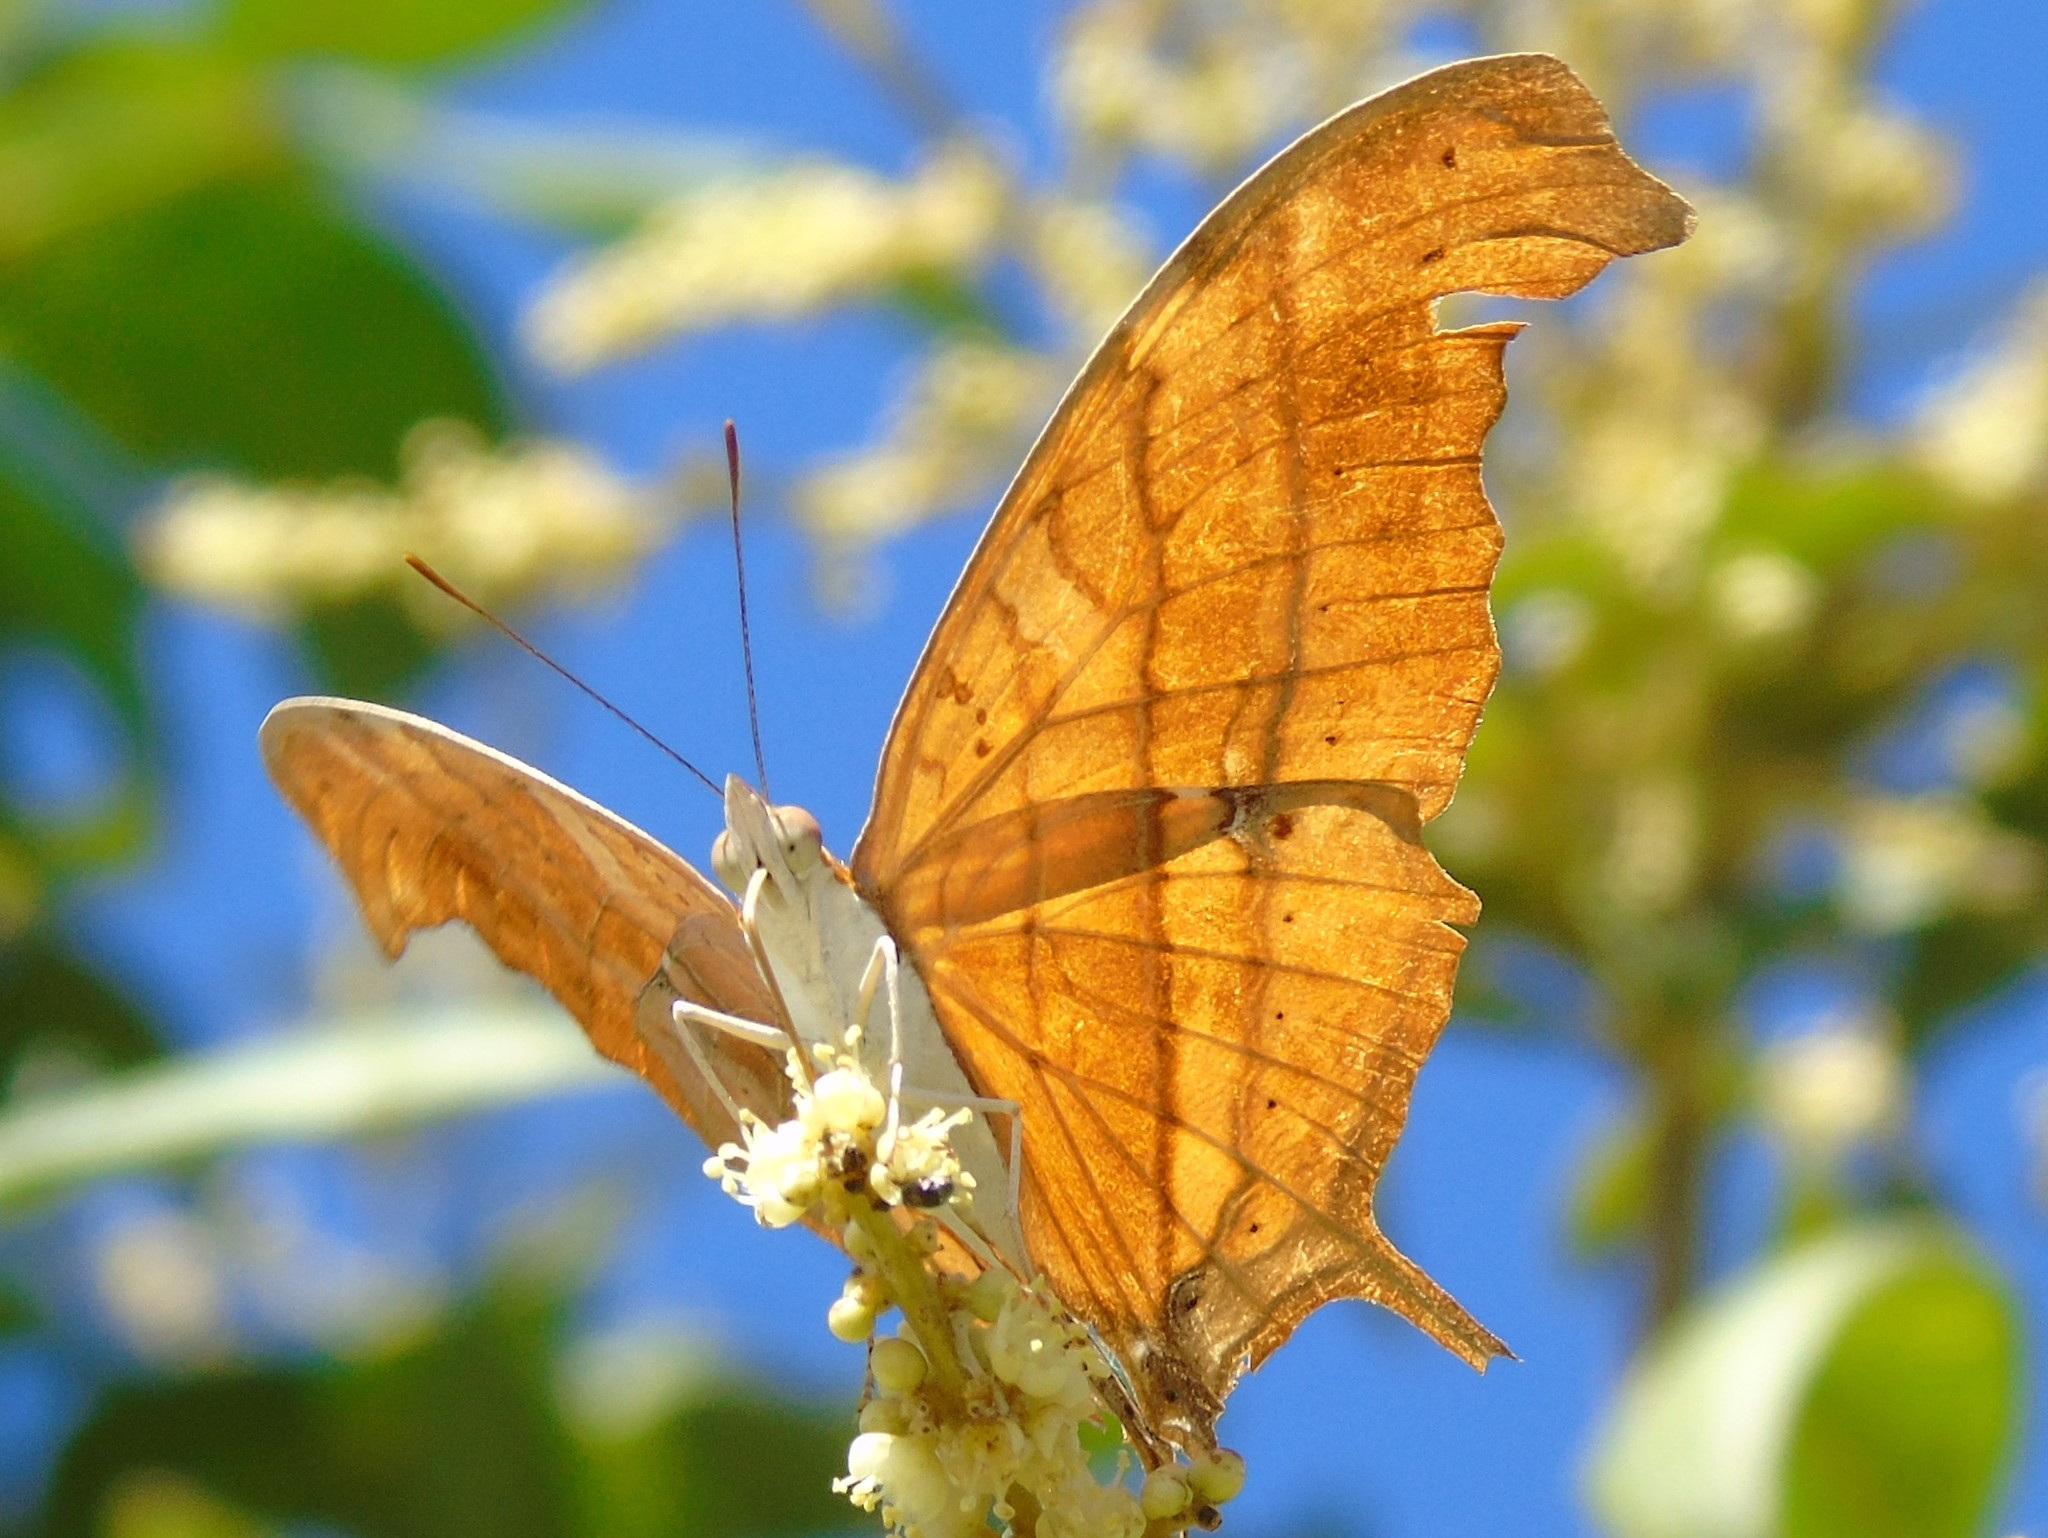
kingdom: Animalia
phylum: Arthropoda
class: Insecta
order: Lepidoptera
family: Nymphalidae
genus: Marpesia
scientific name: Marpesia petreus
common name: Red dagger wing
